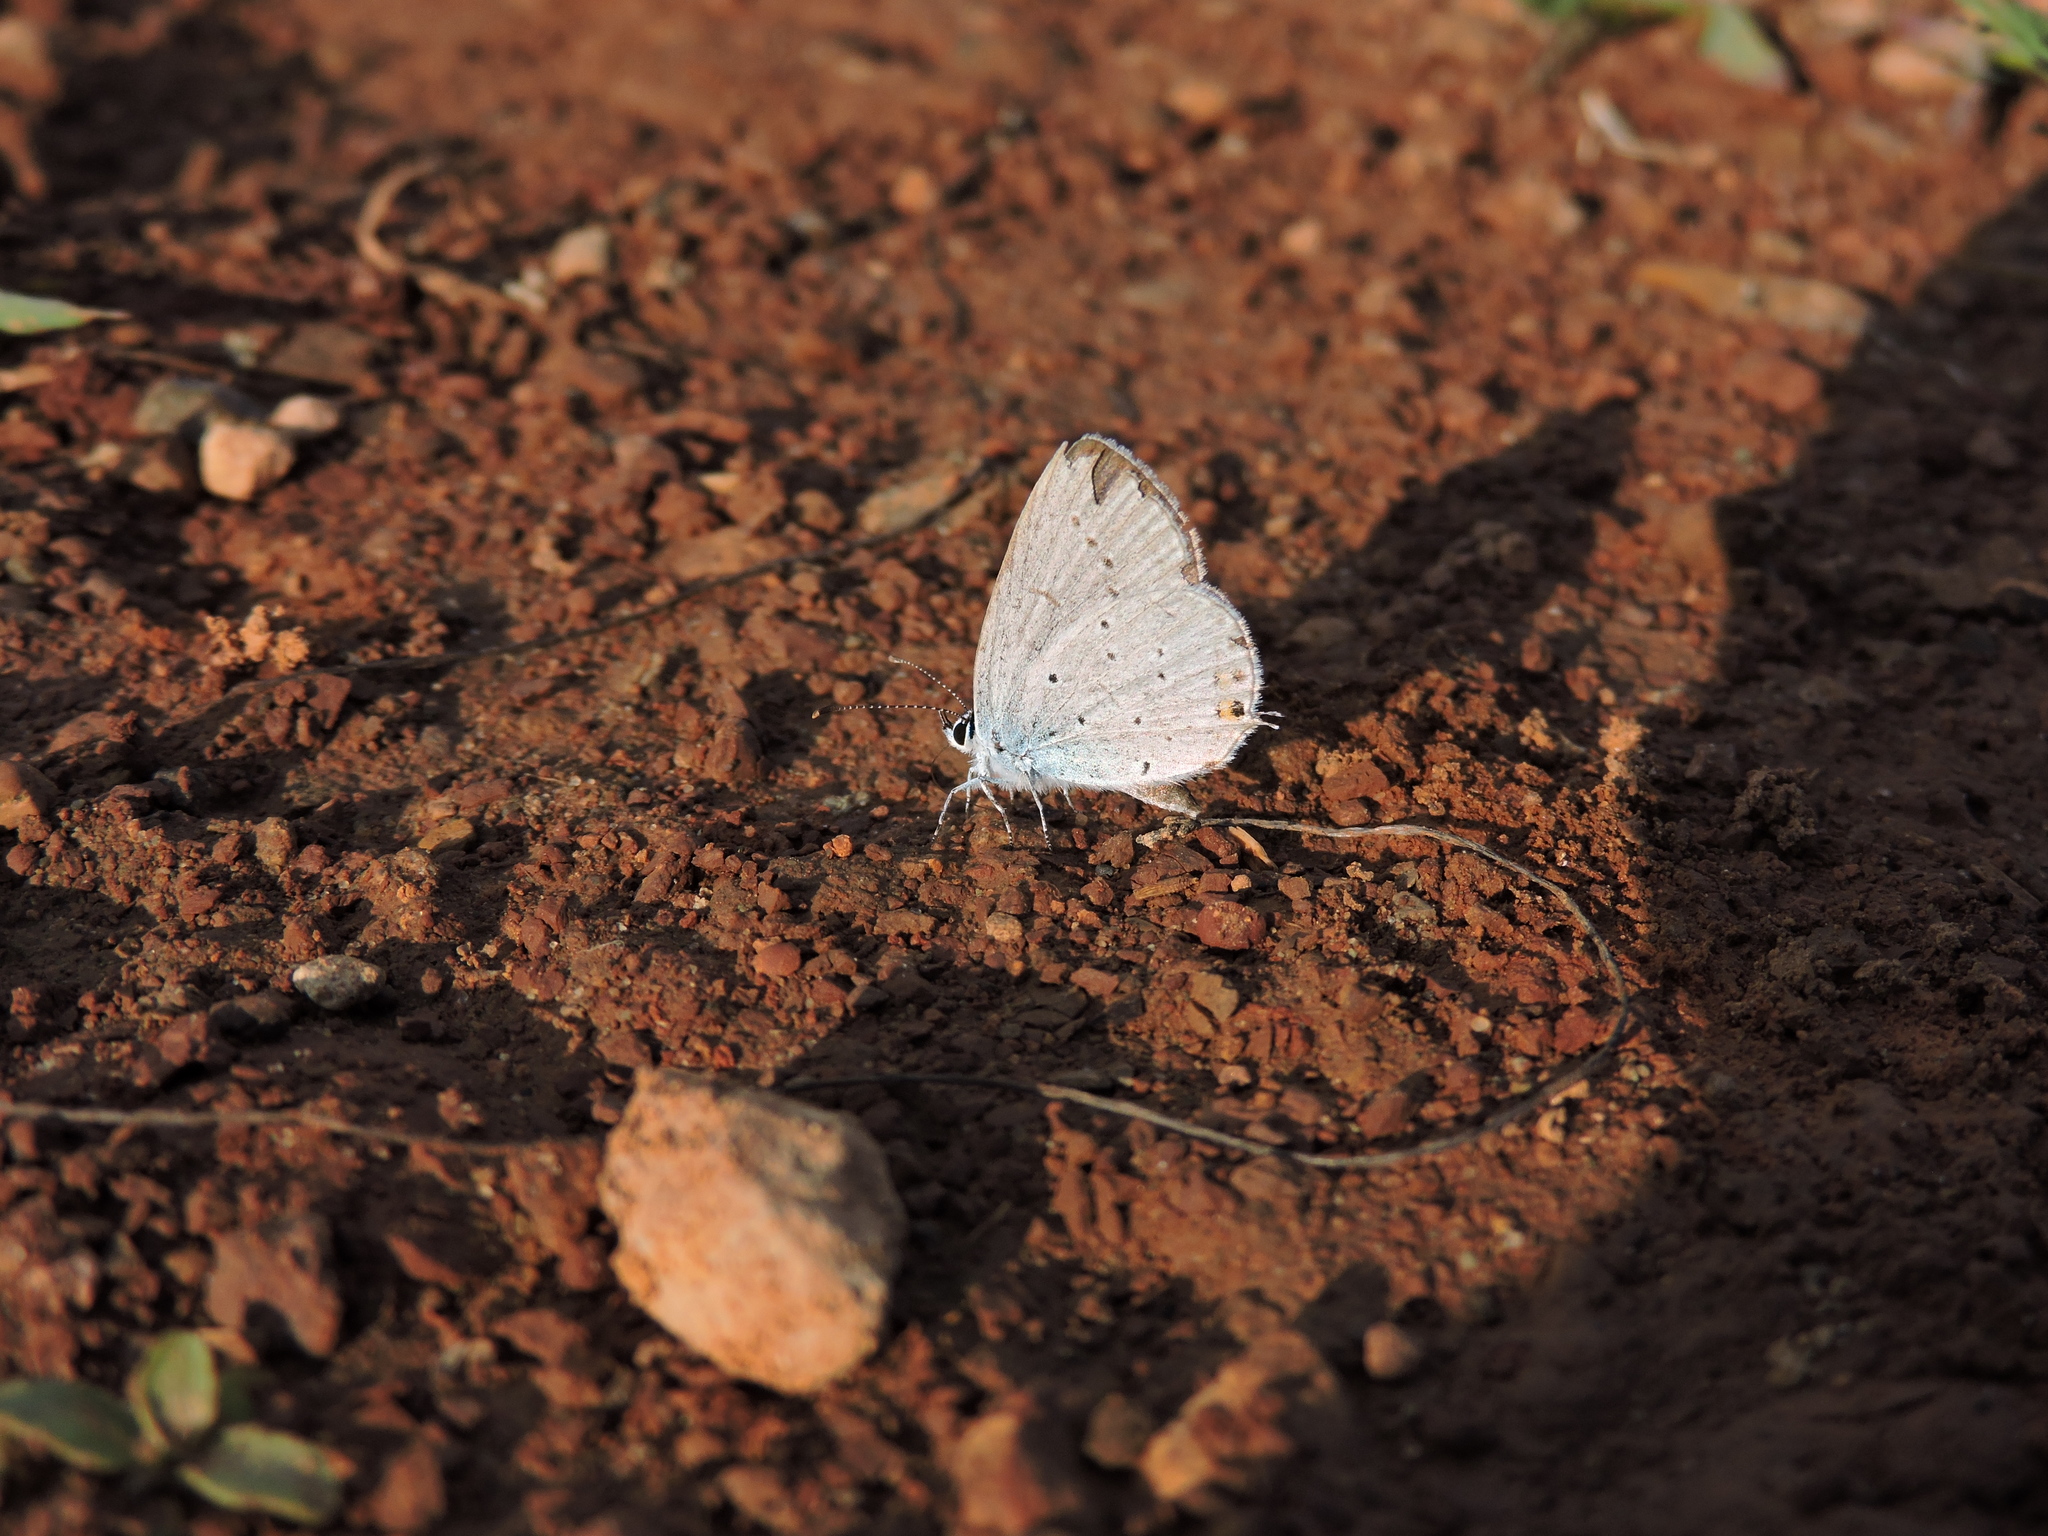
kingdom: Animalia
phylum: Arthropoda
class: Insecta
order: Lepidoptera
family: Lycaenidae
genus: Elkalyce
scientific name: Elkalyce argiades
